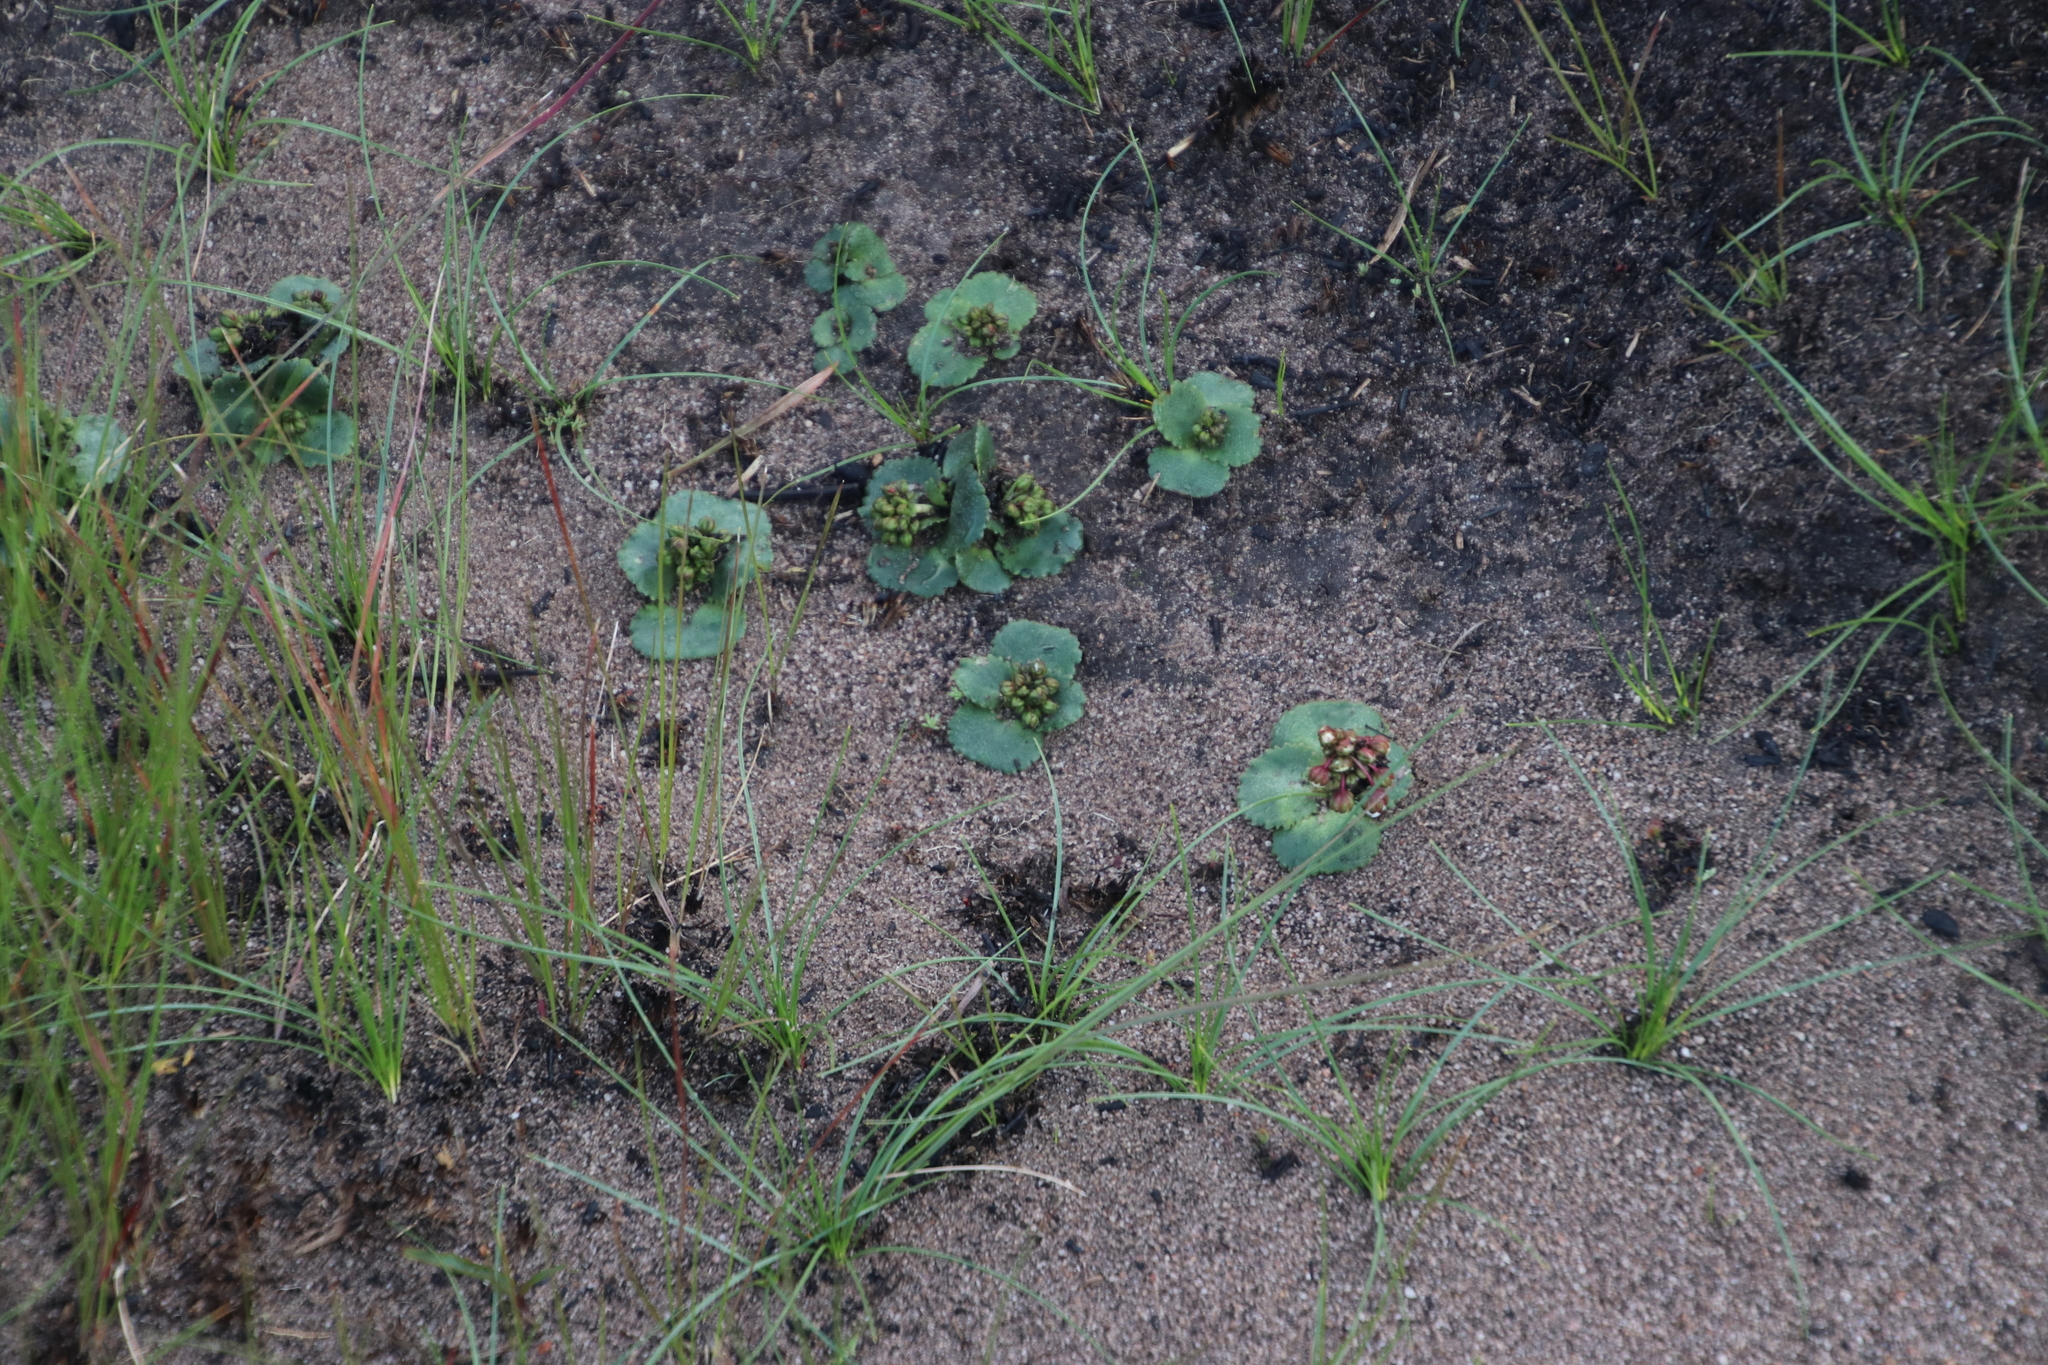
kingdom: Plantae
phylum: Tracheophyta
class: Magnoliopsida
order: Saxifragales
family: Crassulaceae
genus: Crassula
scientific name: Crassula capensis
